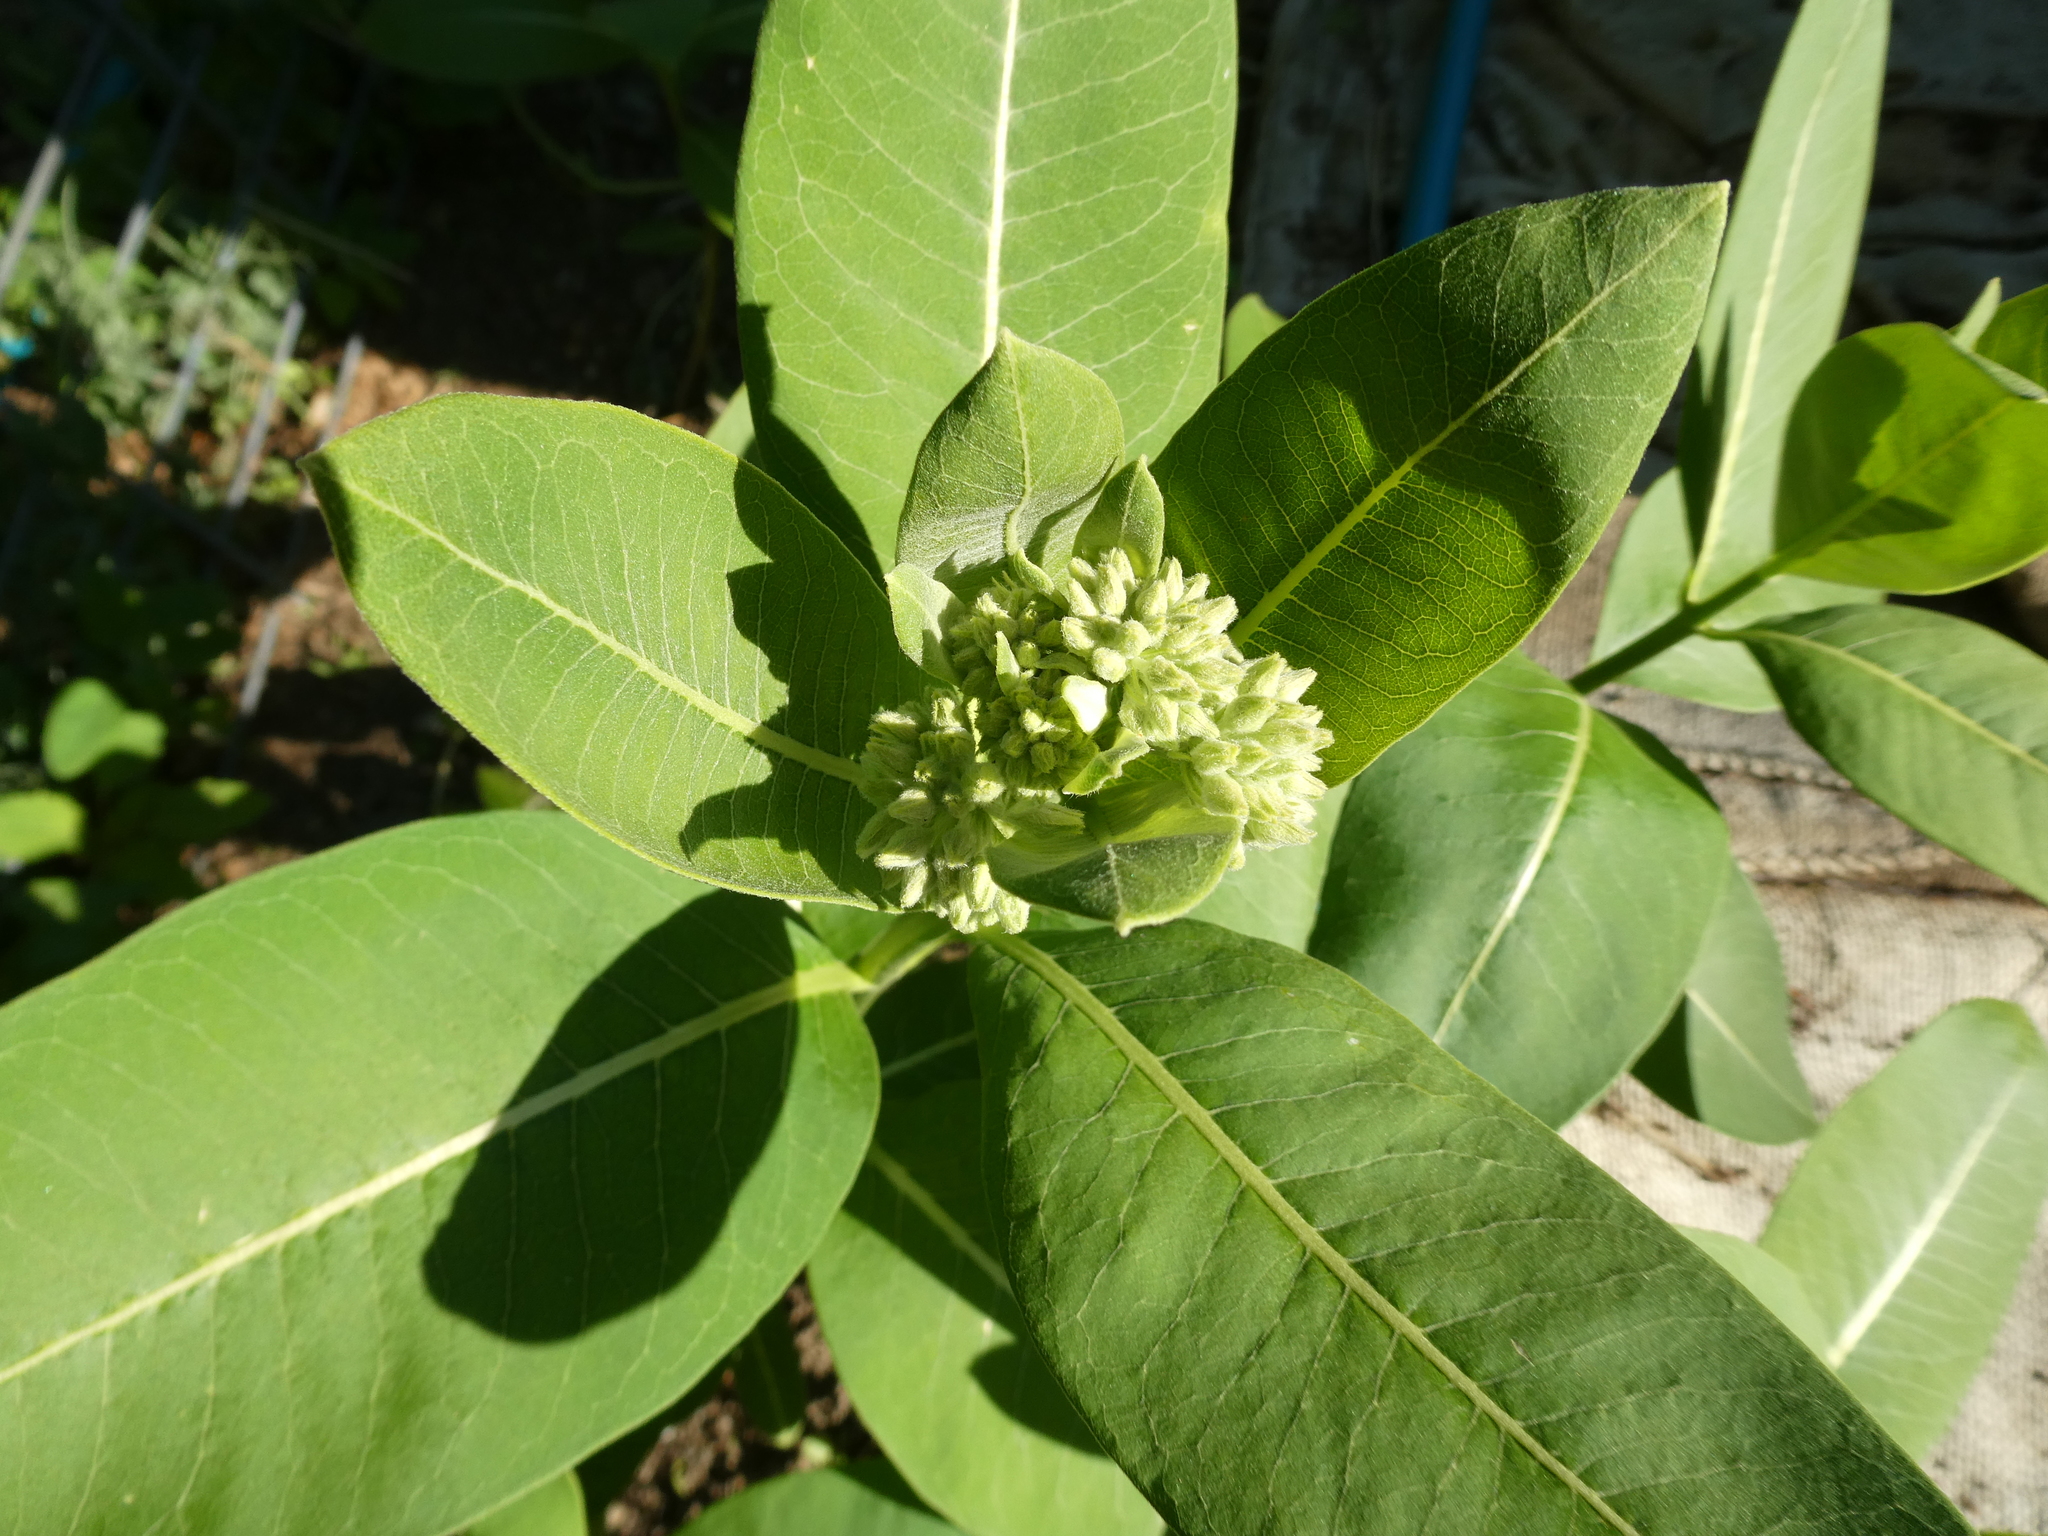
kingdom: Plantae
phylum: Tracheophyta
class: Magnoliopsida
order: Gentianales
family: Apocynaceae
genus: Asclepias
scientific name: Asclepias syriaca
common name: Common milkweed
